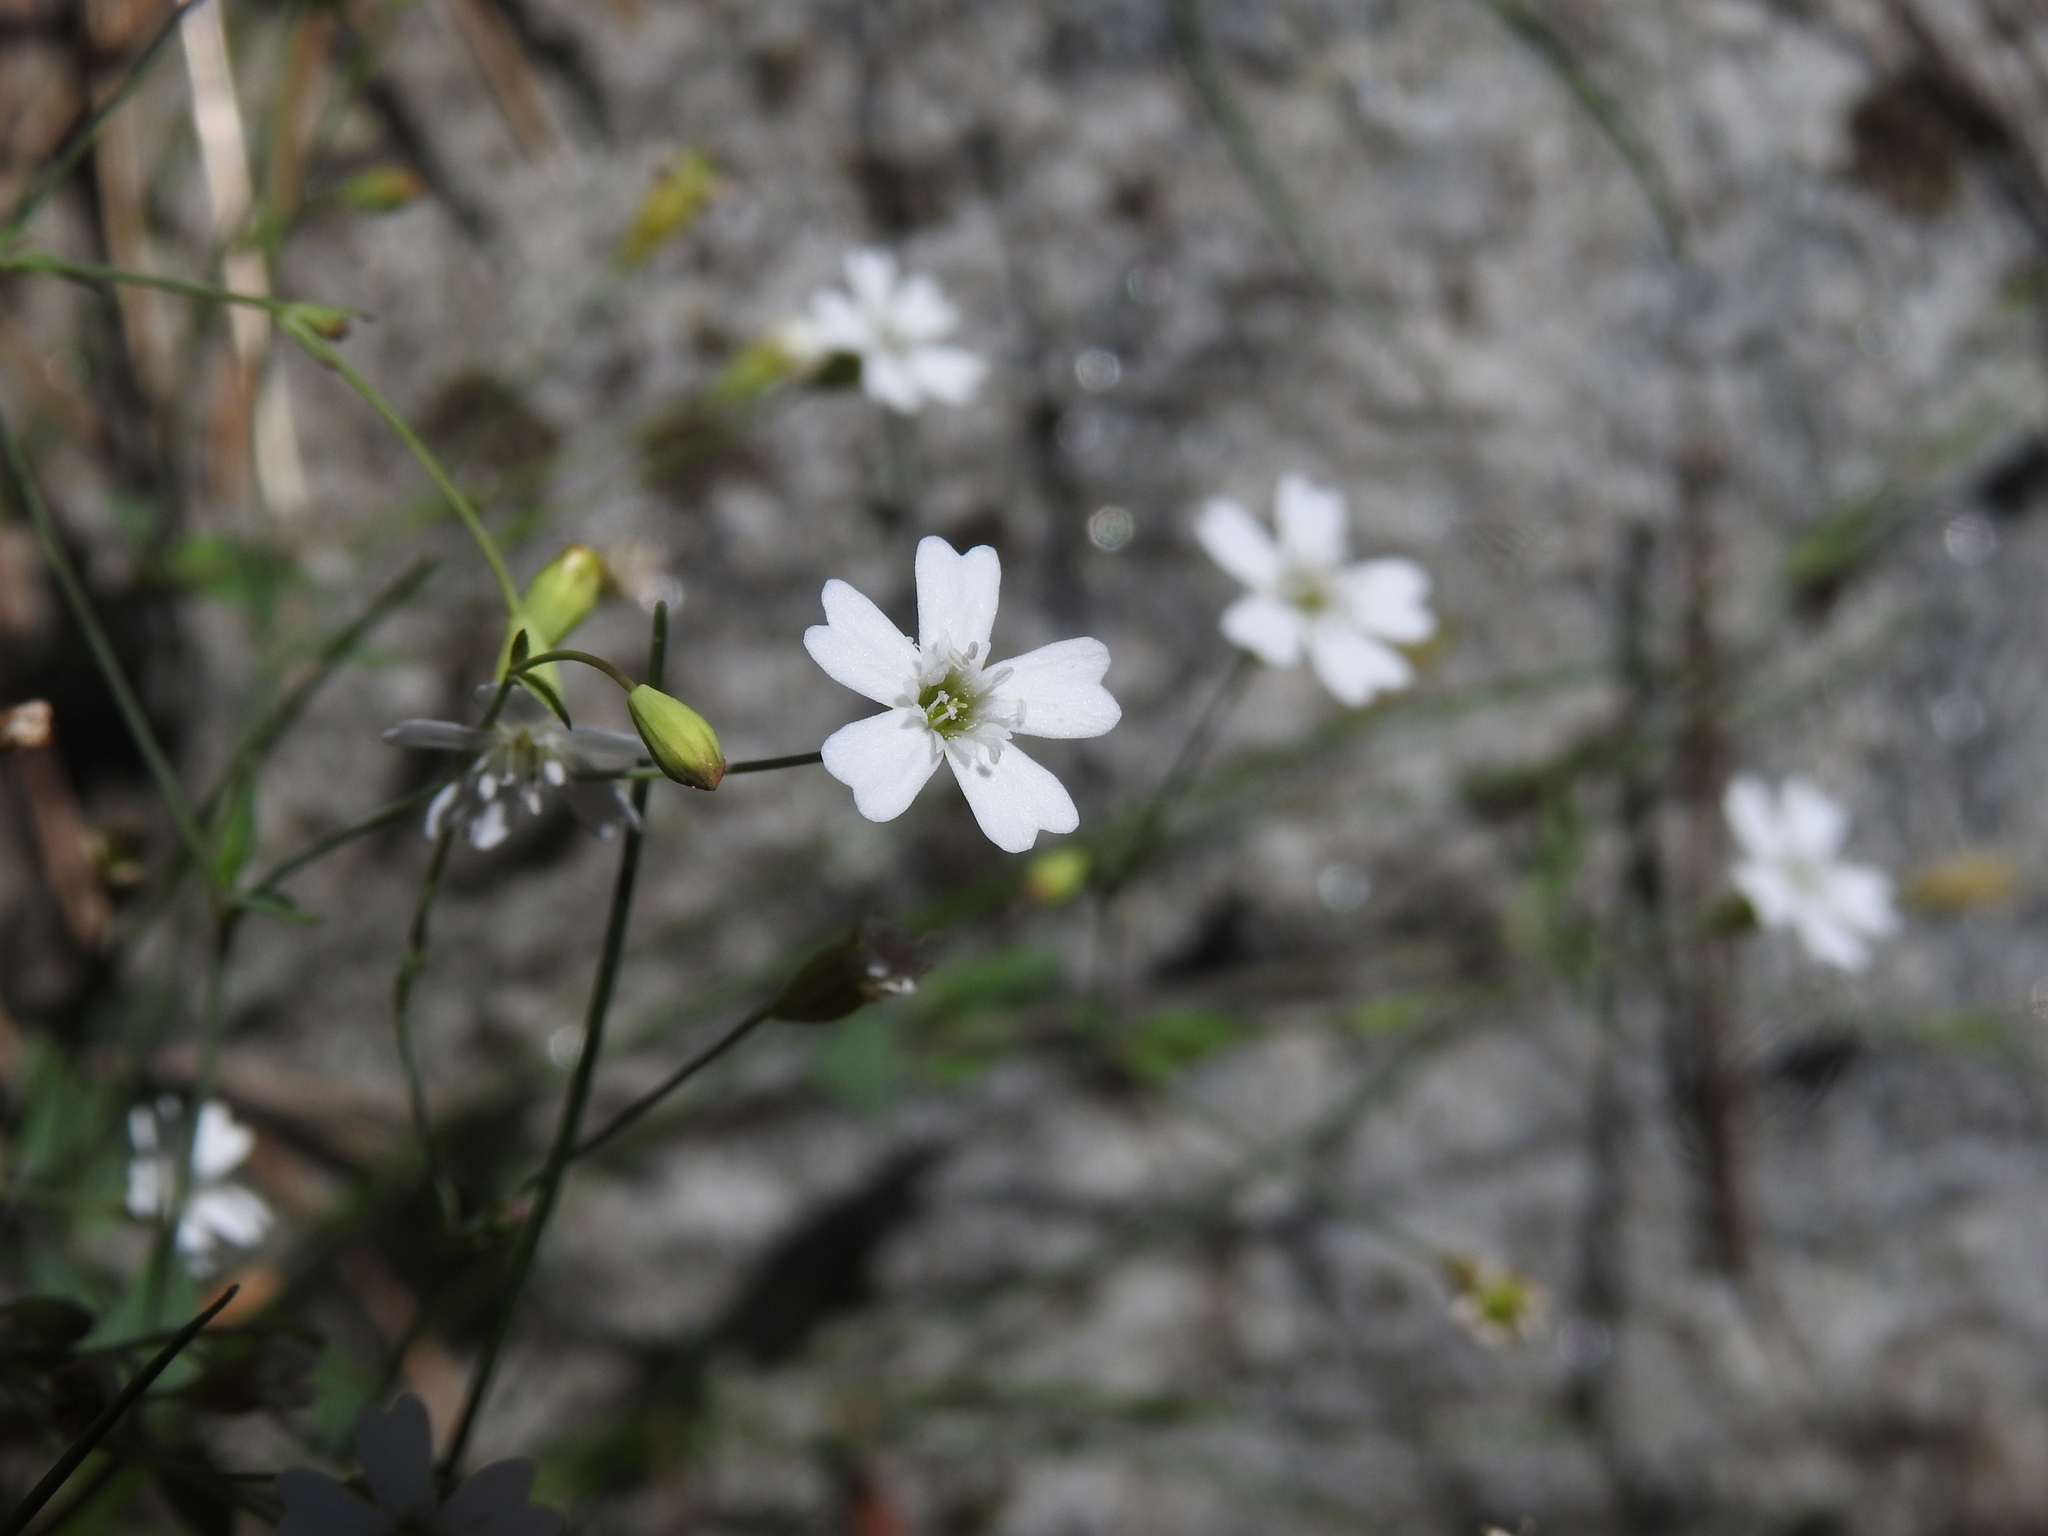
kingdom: Plantae
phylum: Tracheophyta
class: Magnoliopsida
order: Caryophyllales
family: Caryophyllaceae
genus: Atocion
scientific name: Atocion rupestre
